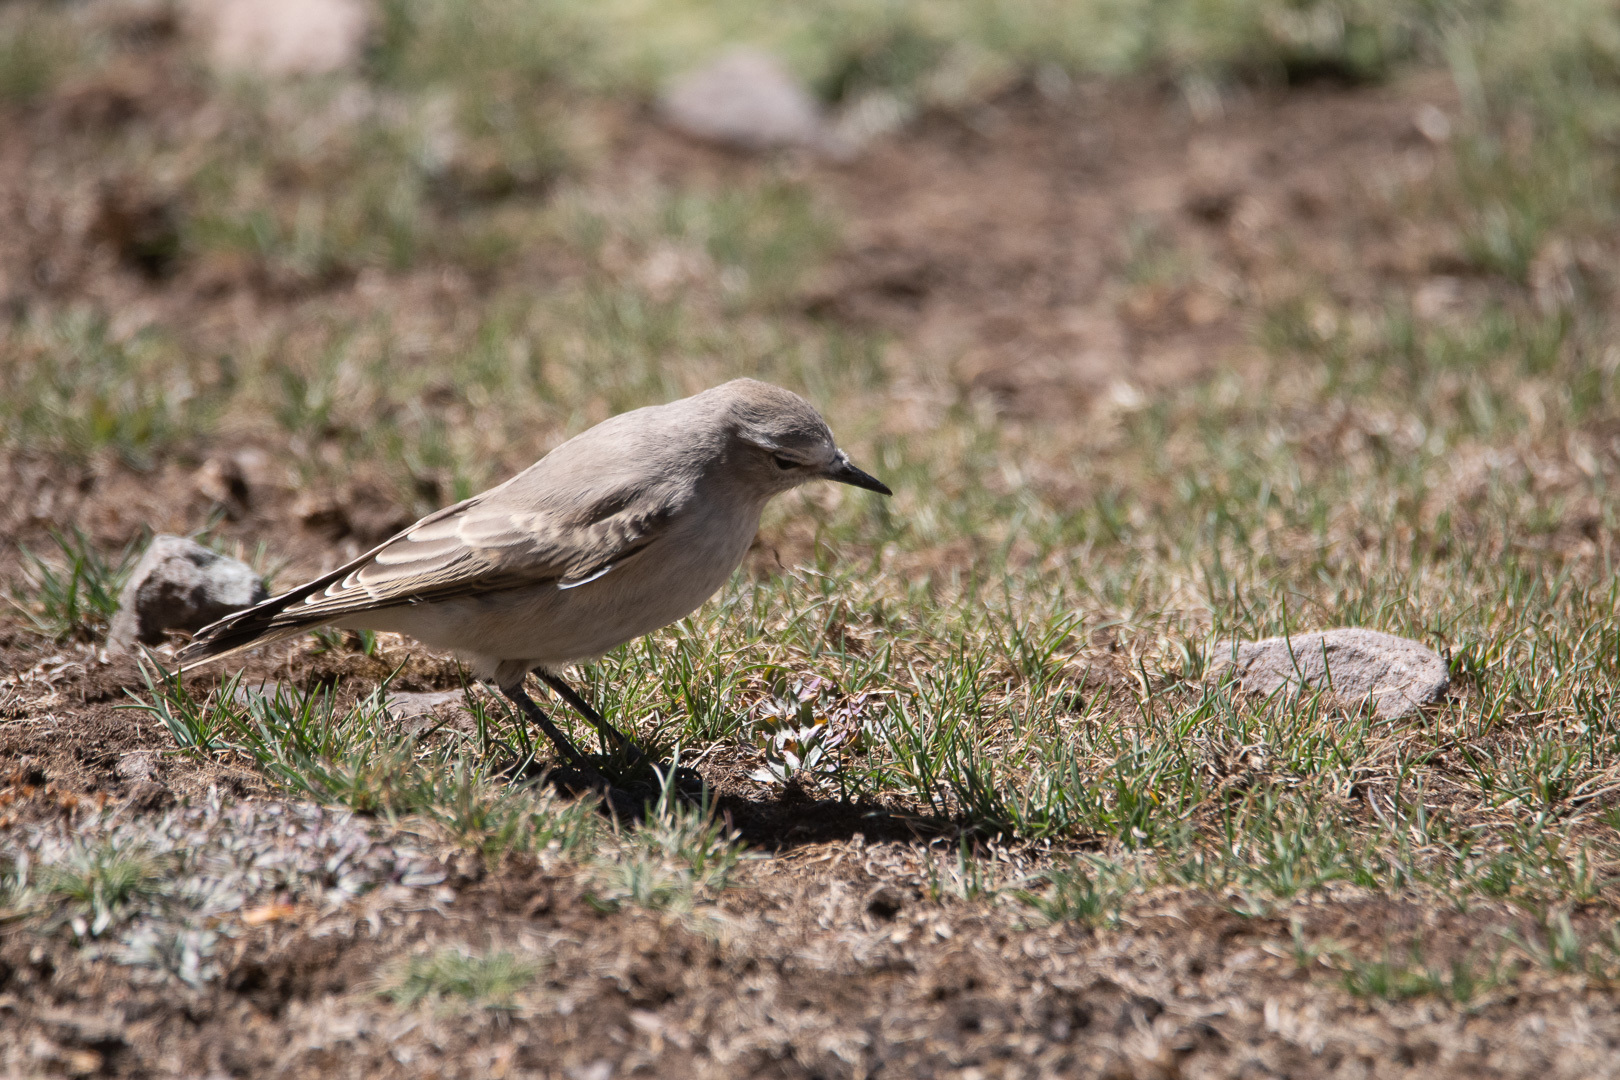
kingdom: Animalia
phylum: Chordata
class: Aves
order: Passeriformes
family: Tyrannidae
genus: Muscisaxicola
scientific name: Muscisaxicola flavinucha
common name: Ochre-naped ground tyrant
